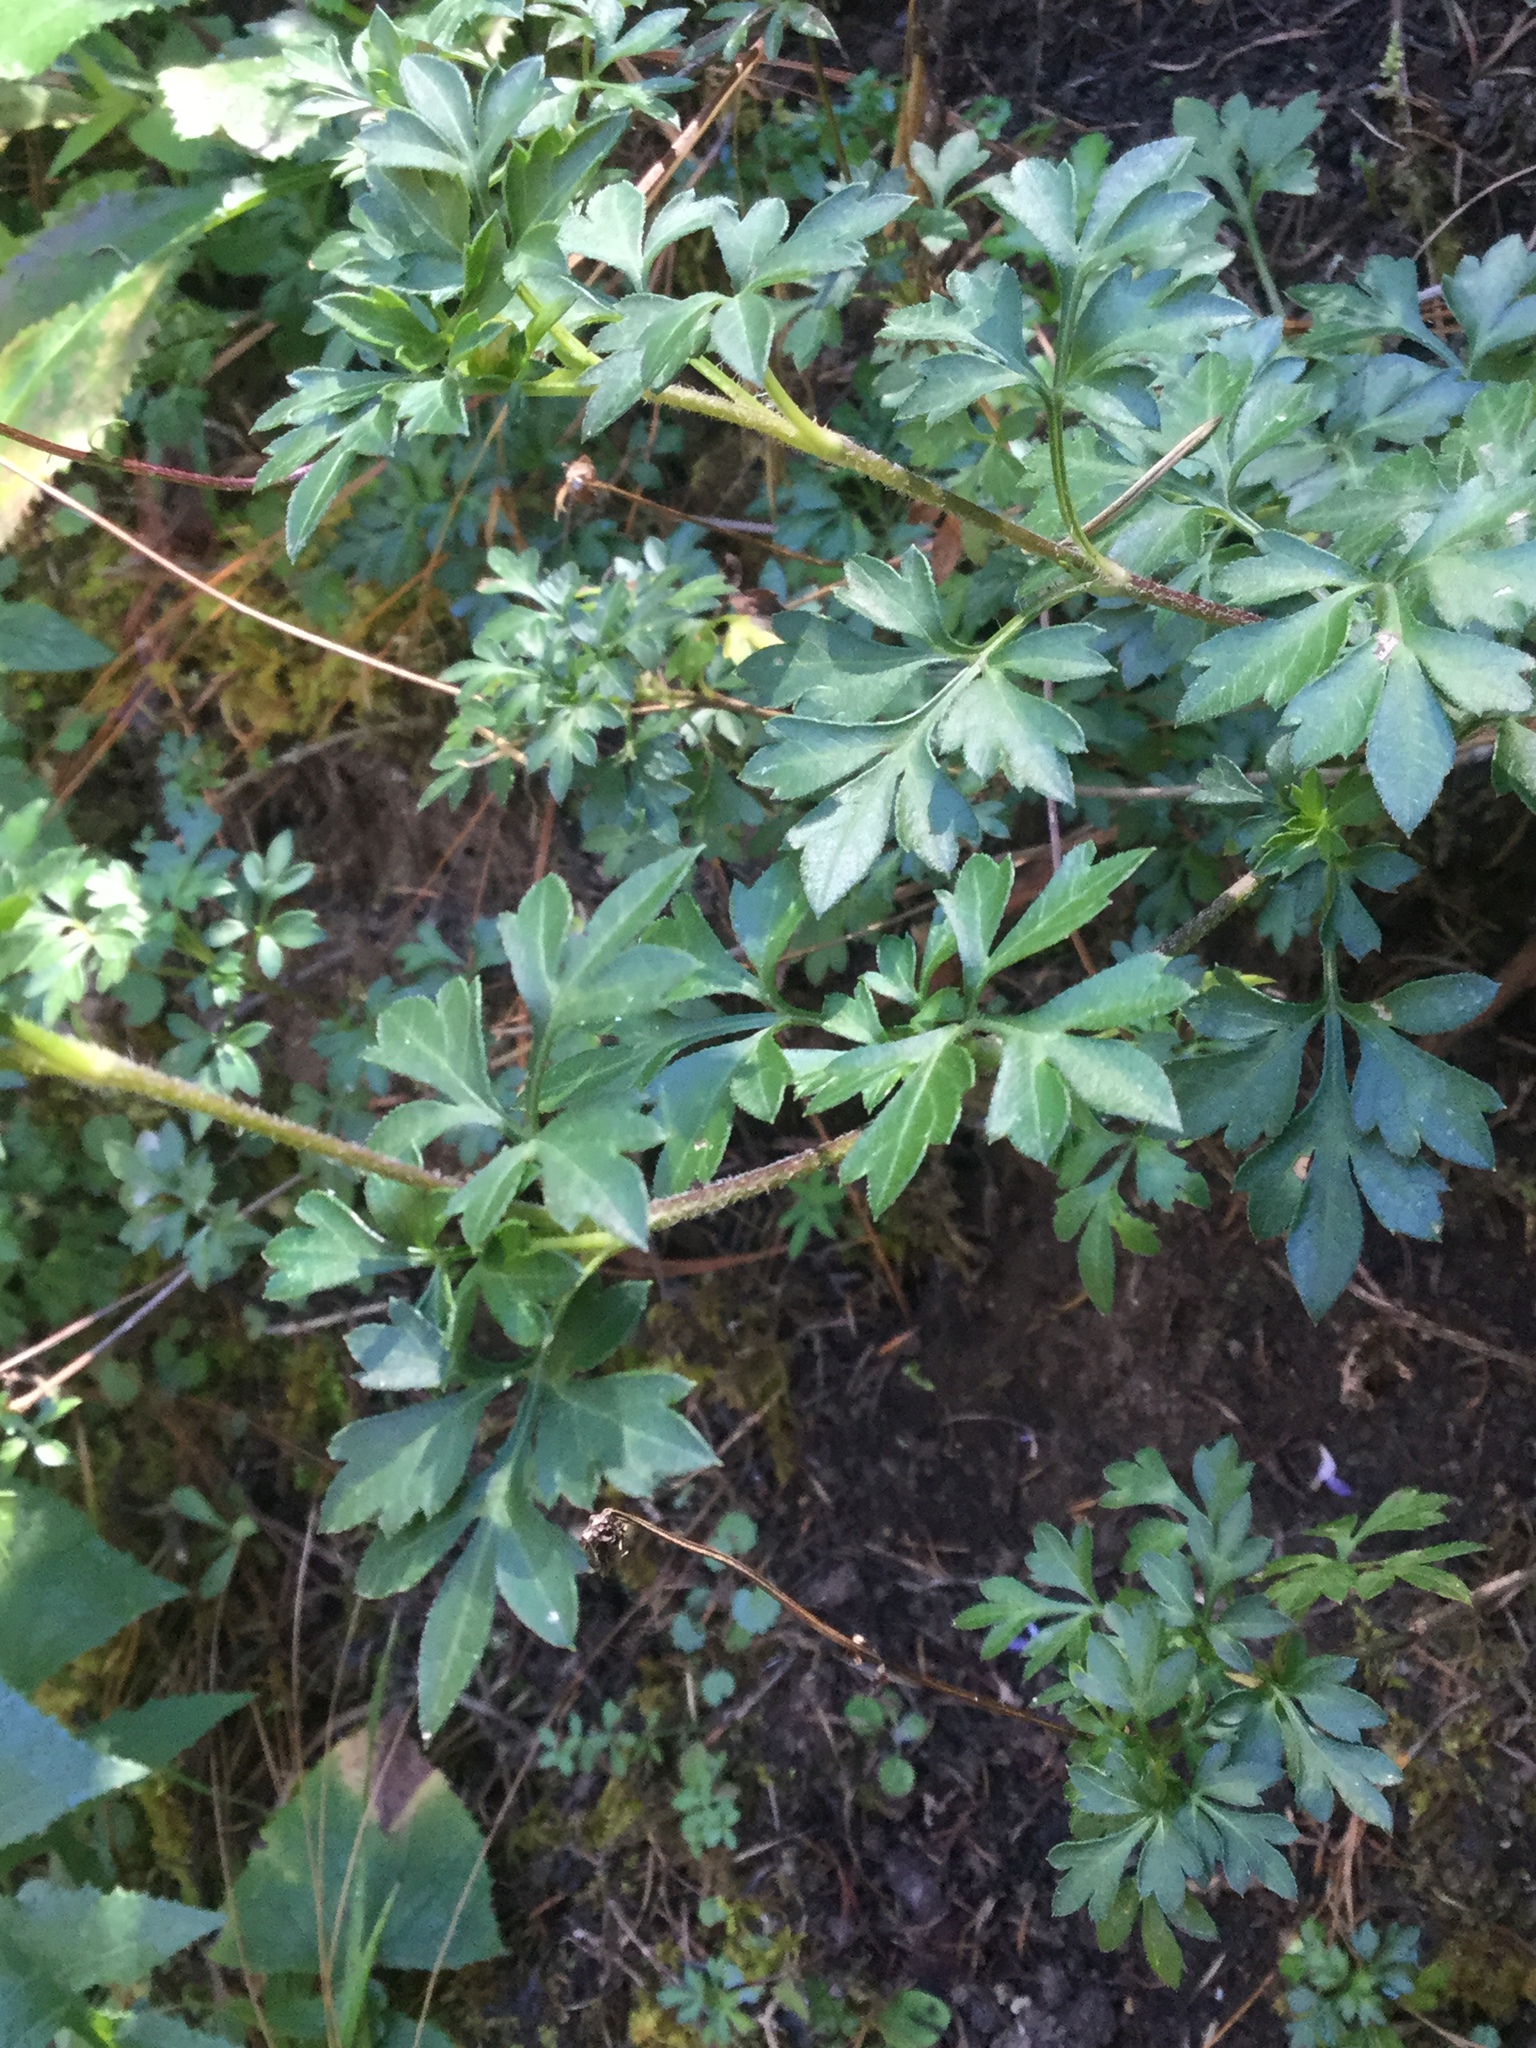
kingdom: Plantae
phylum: Tracheophyta
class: Magnoliopsida
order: Asterales
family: Asteraceae
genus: Bidens
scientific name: Bidens ostruthioides
